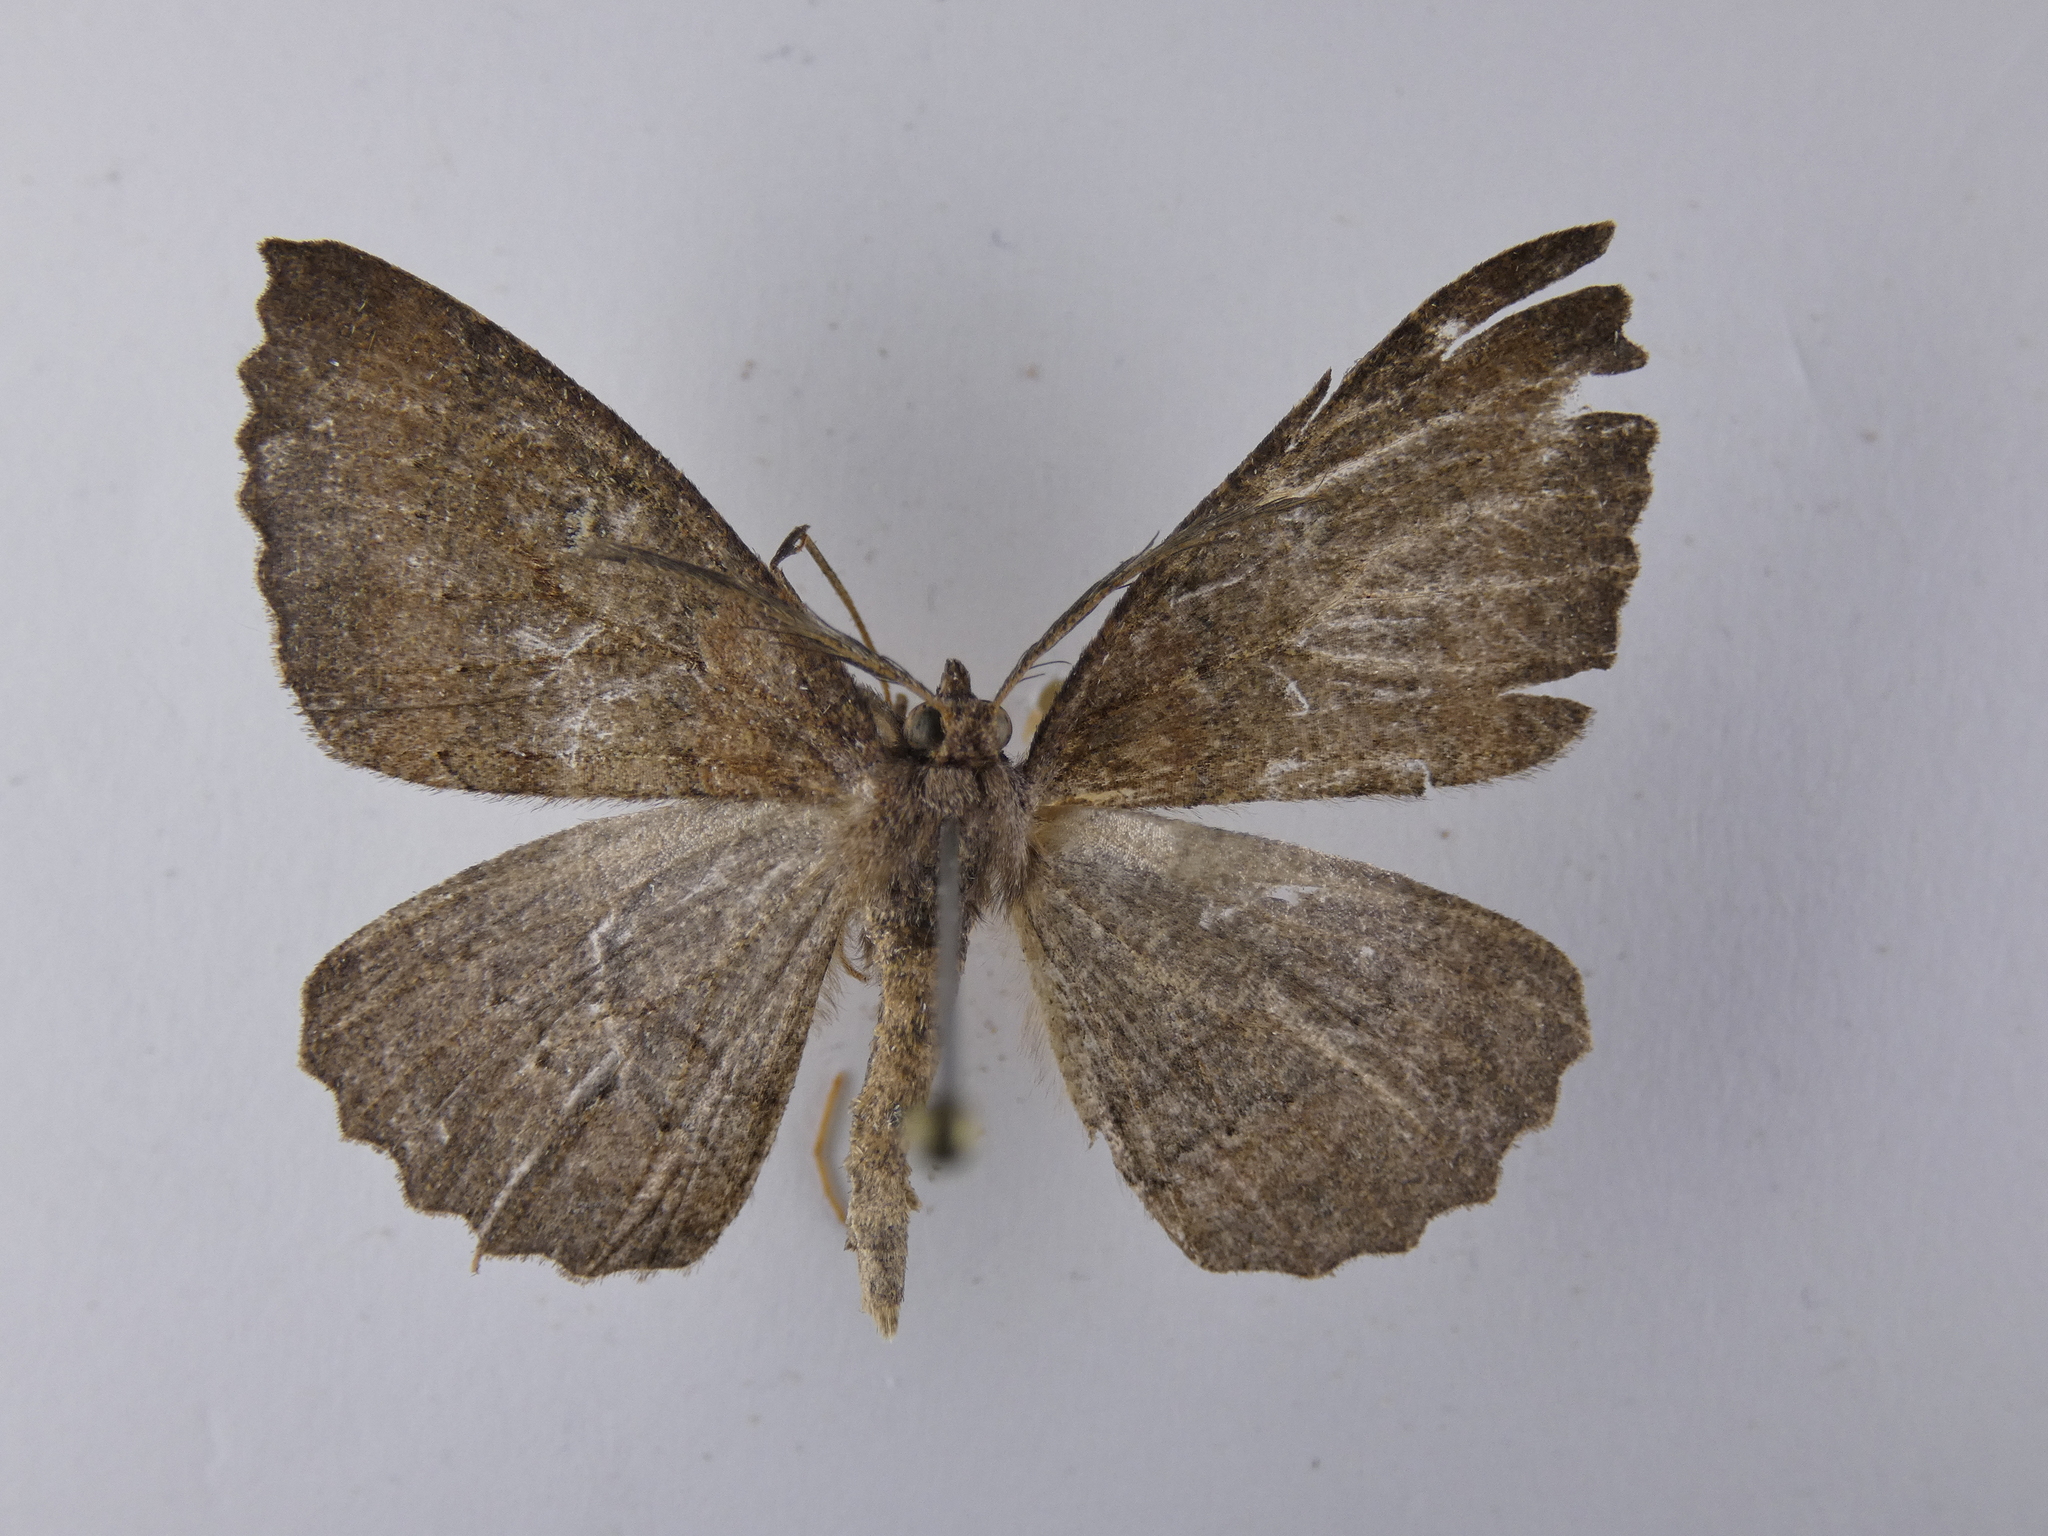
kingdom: Animalia
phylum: Arthropoda
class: Insecta
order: Lepidoptera
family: Geometridae
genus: Cleora
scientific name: Cleora scriptaria
